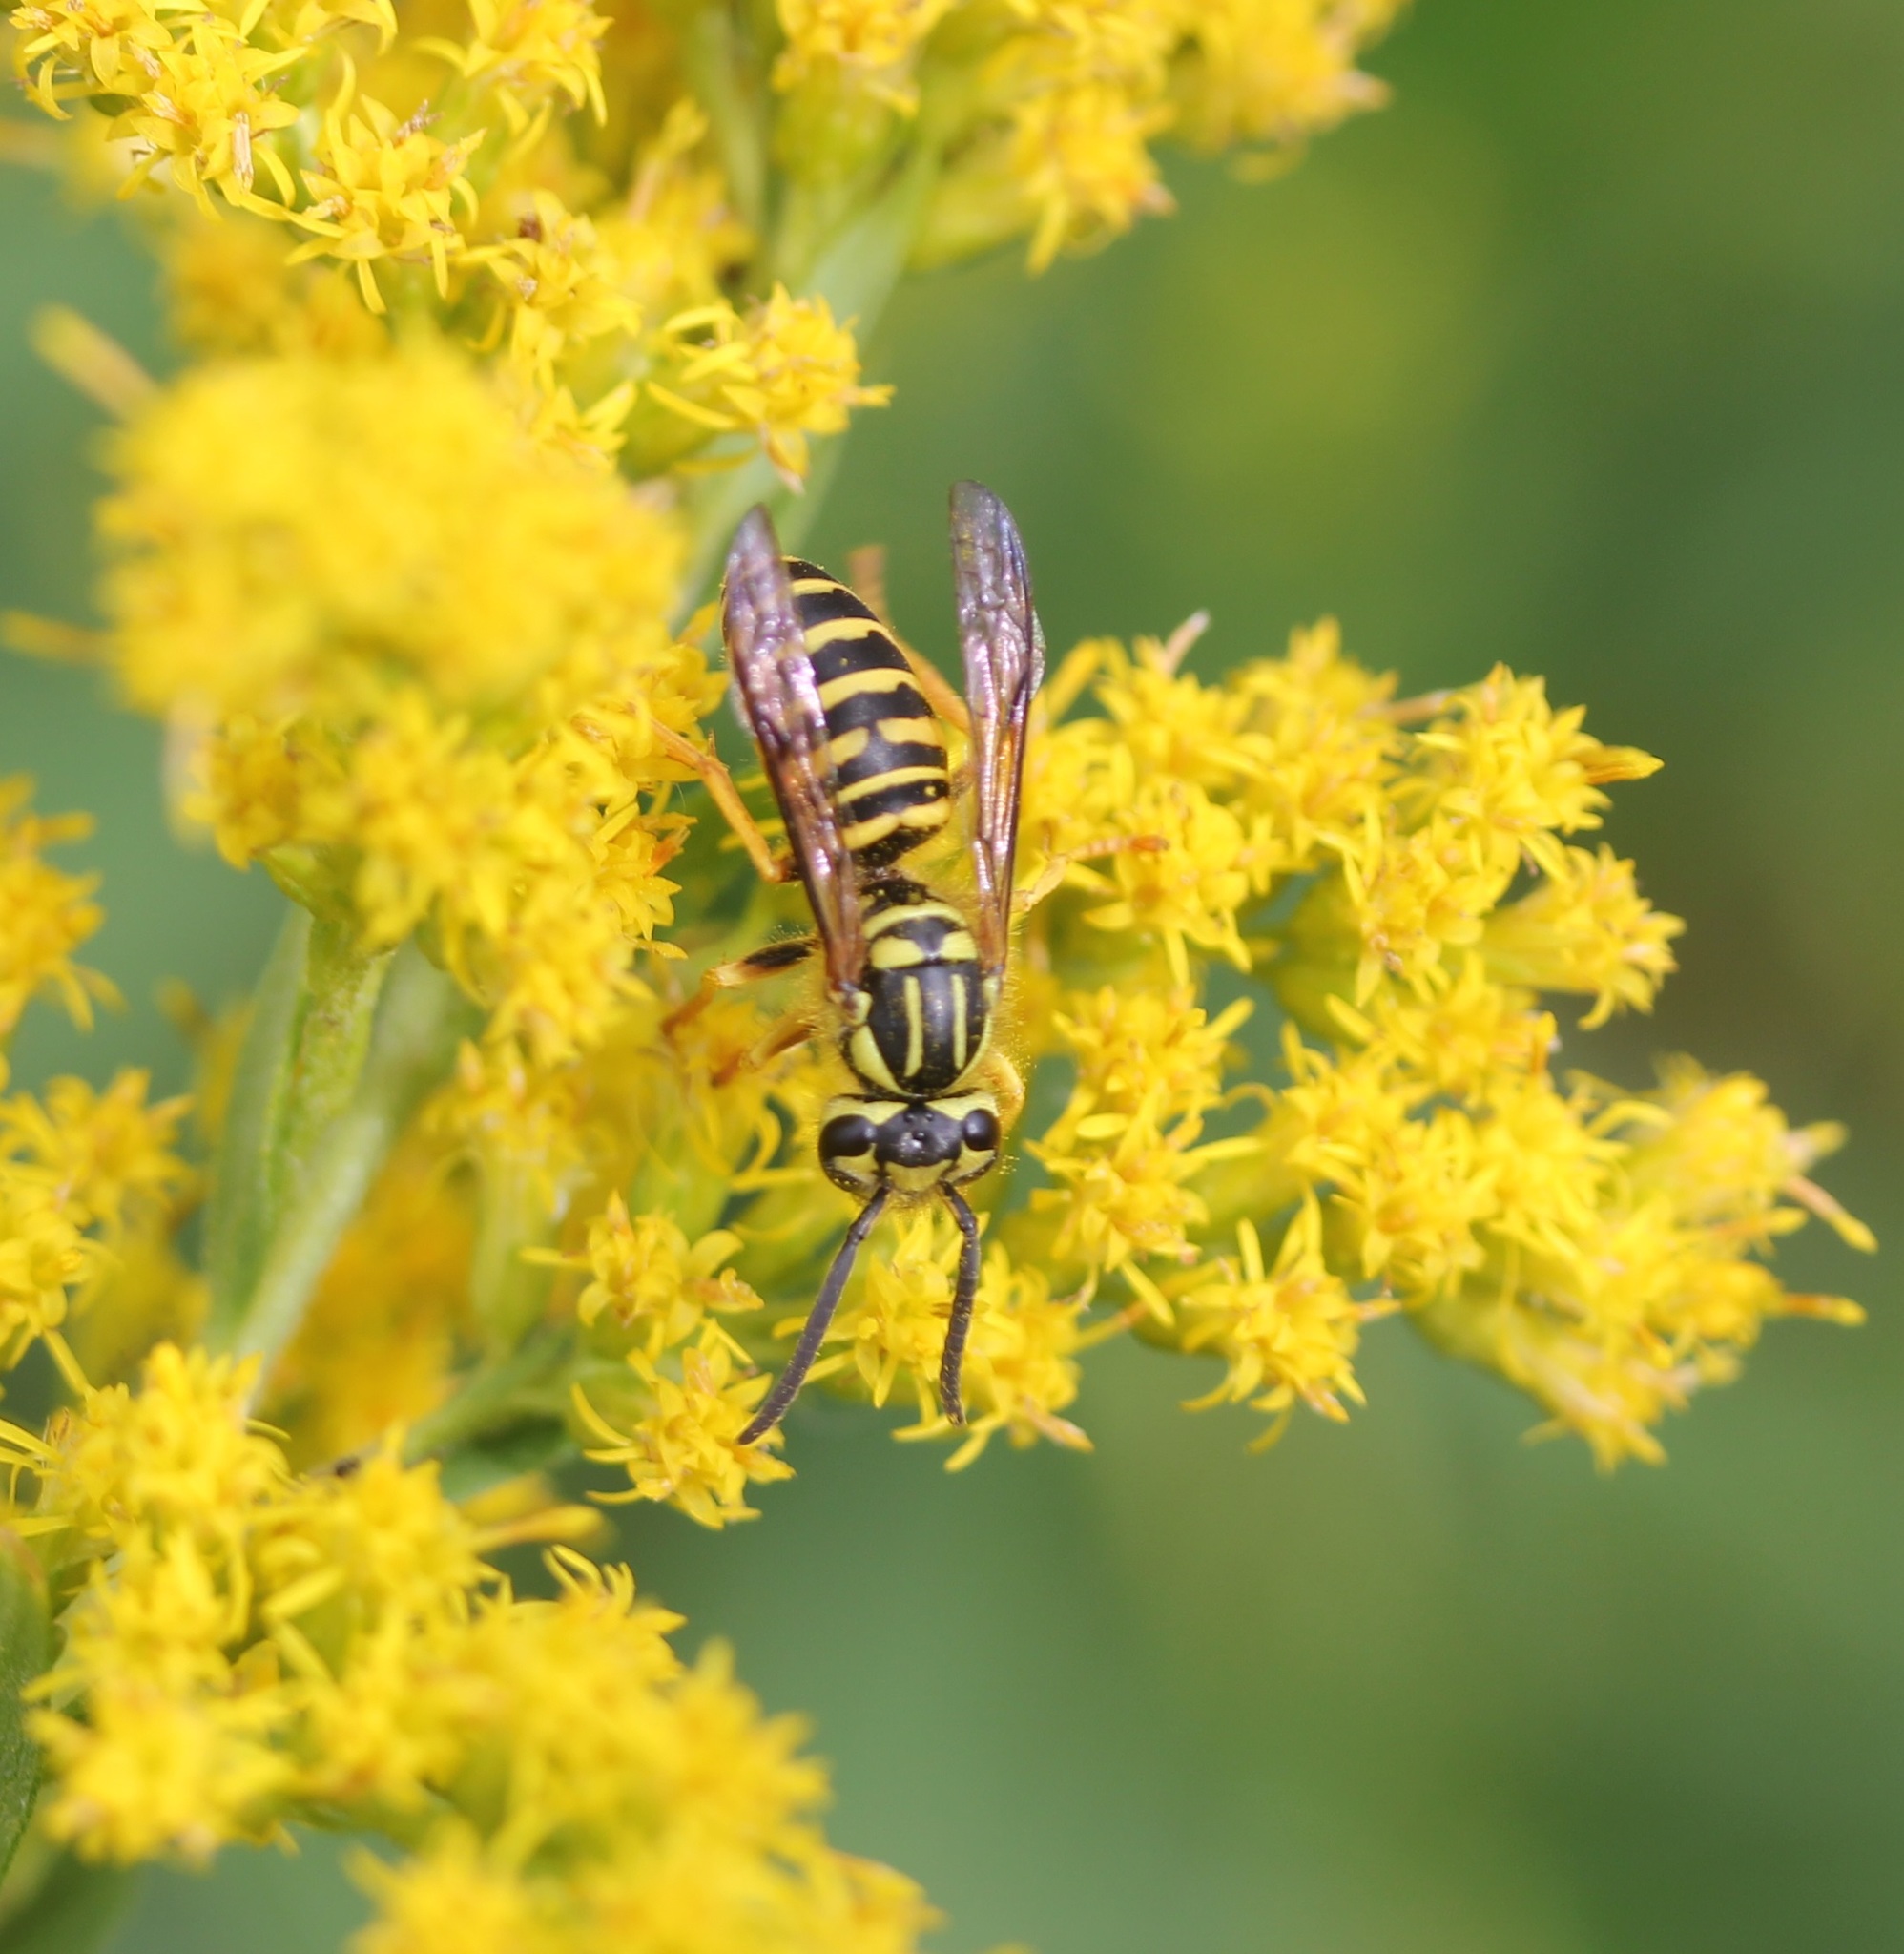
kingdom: Animalia
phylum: Arthropoda
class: Insecta
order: Hymenoptera
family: Vespidae
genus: Vespula
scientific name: Vespula squamosa
